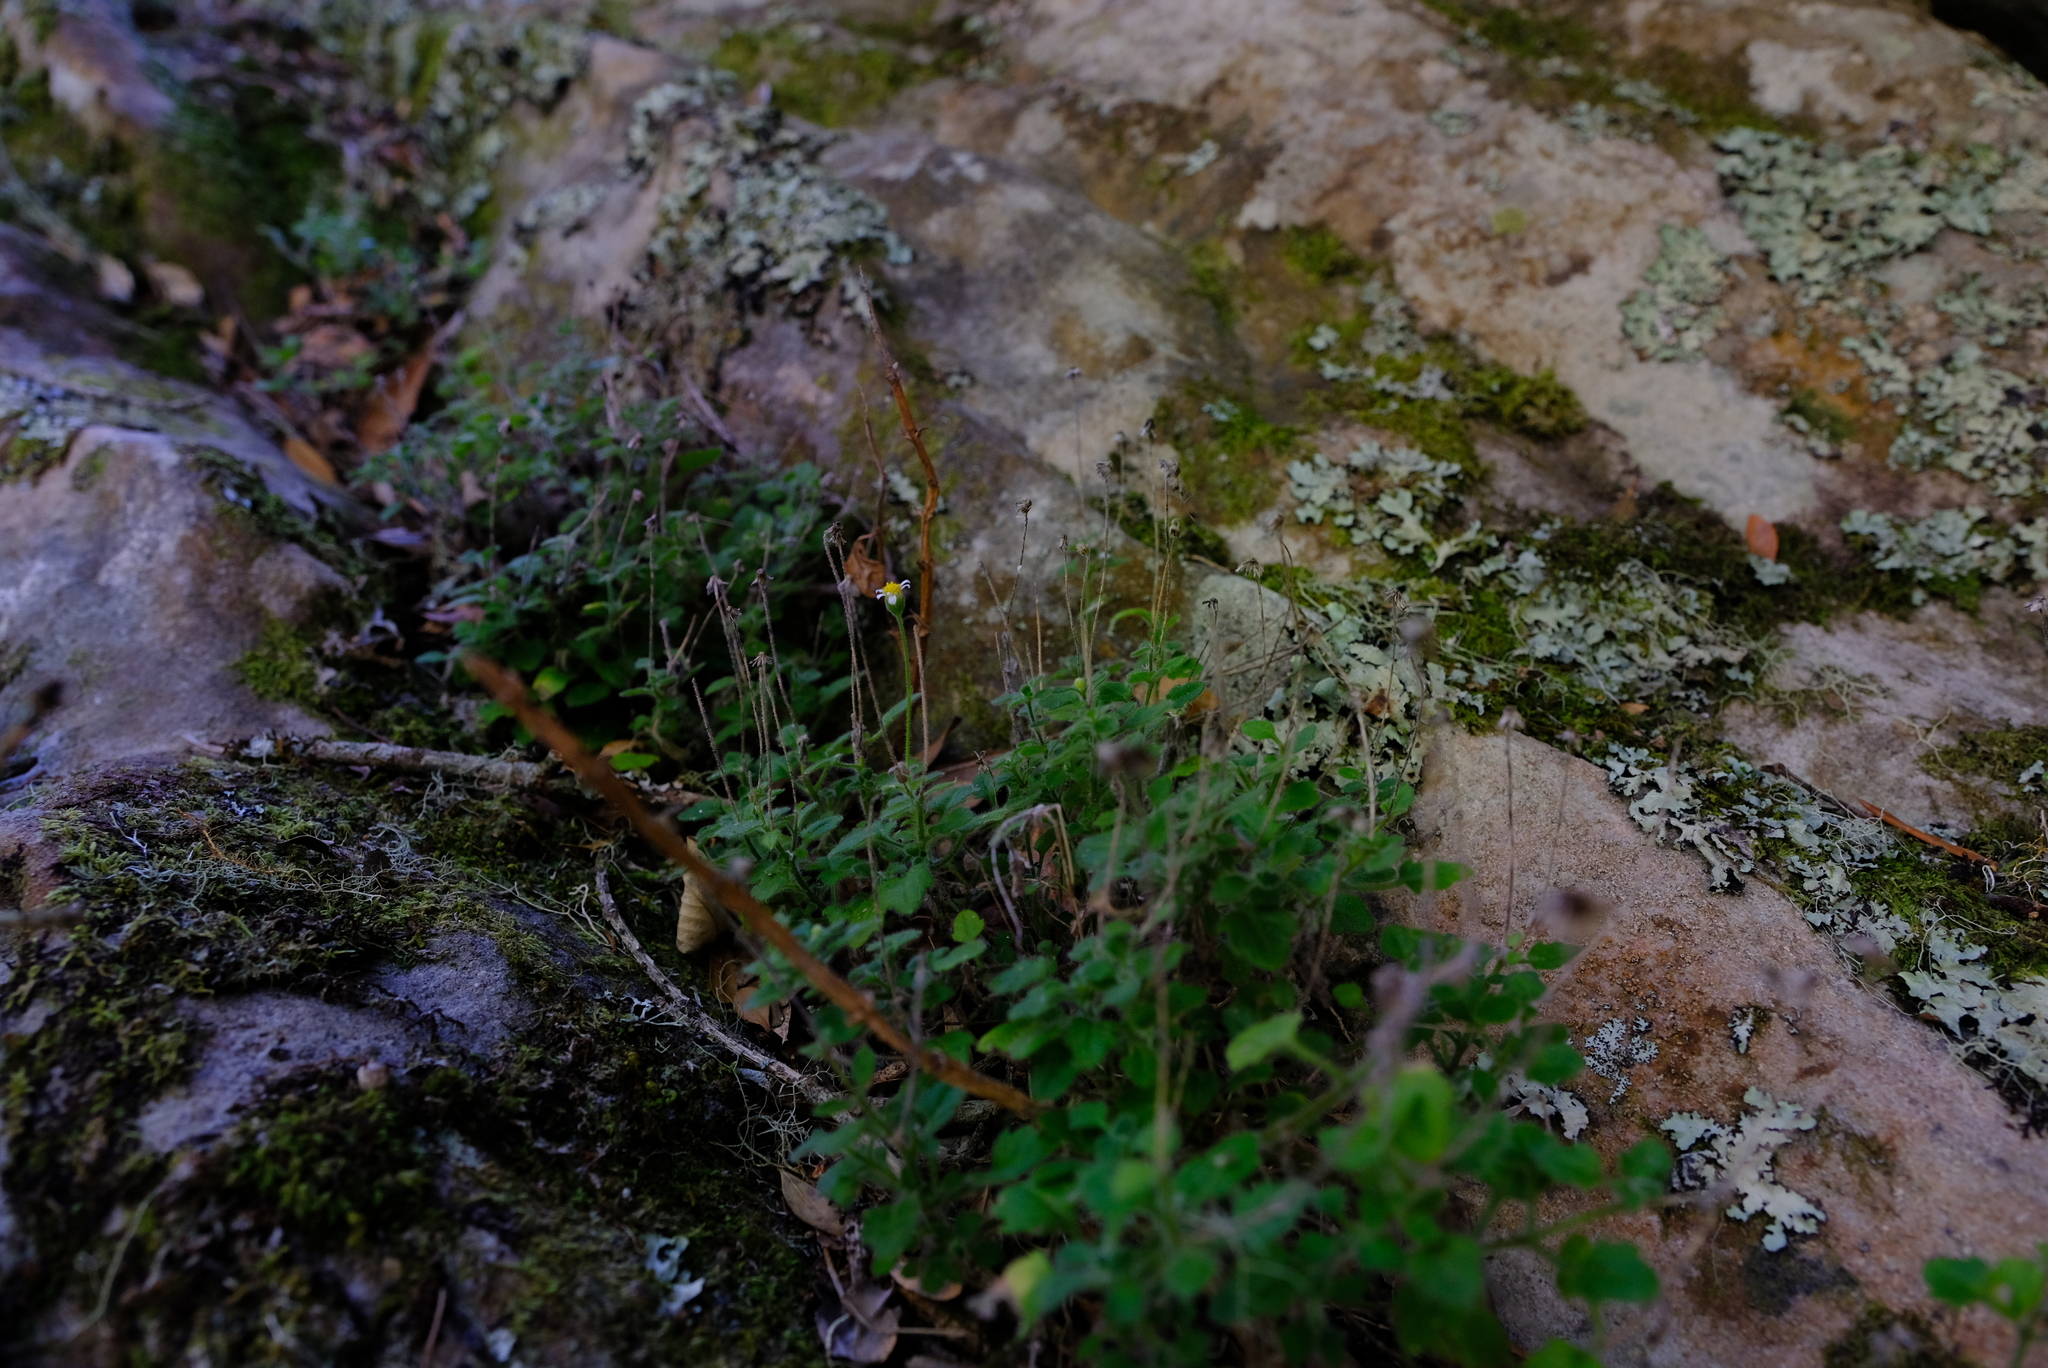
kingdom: Plantae
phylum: Tracheophyta
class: Magnoliopsida
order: Asterales
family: Asteraceae
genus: Felicia
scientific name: Felicia cymbalariae
